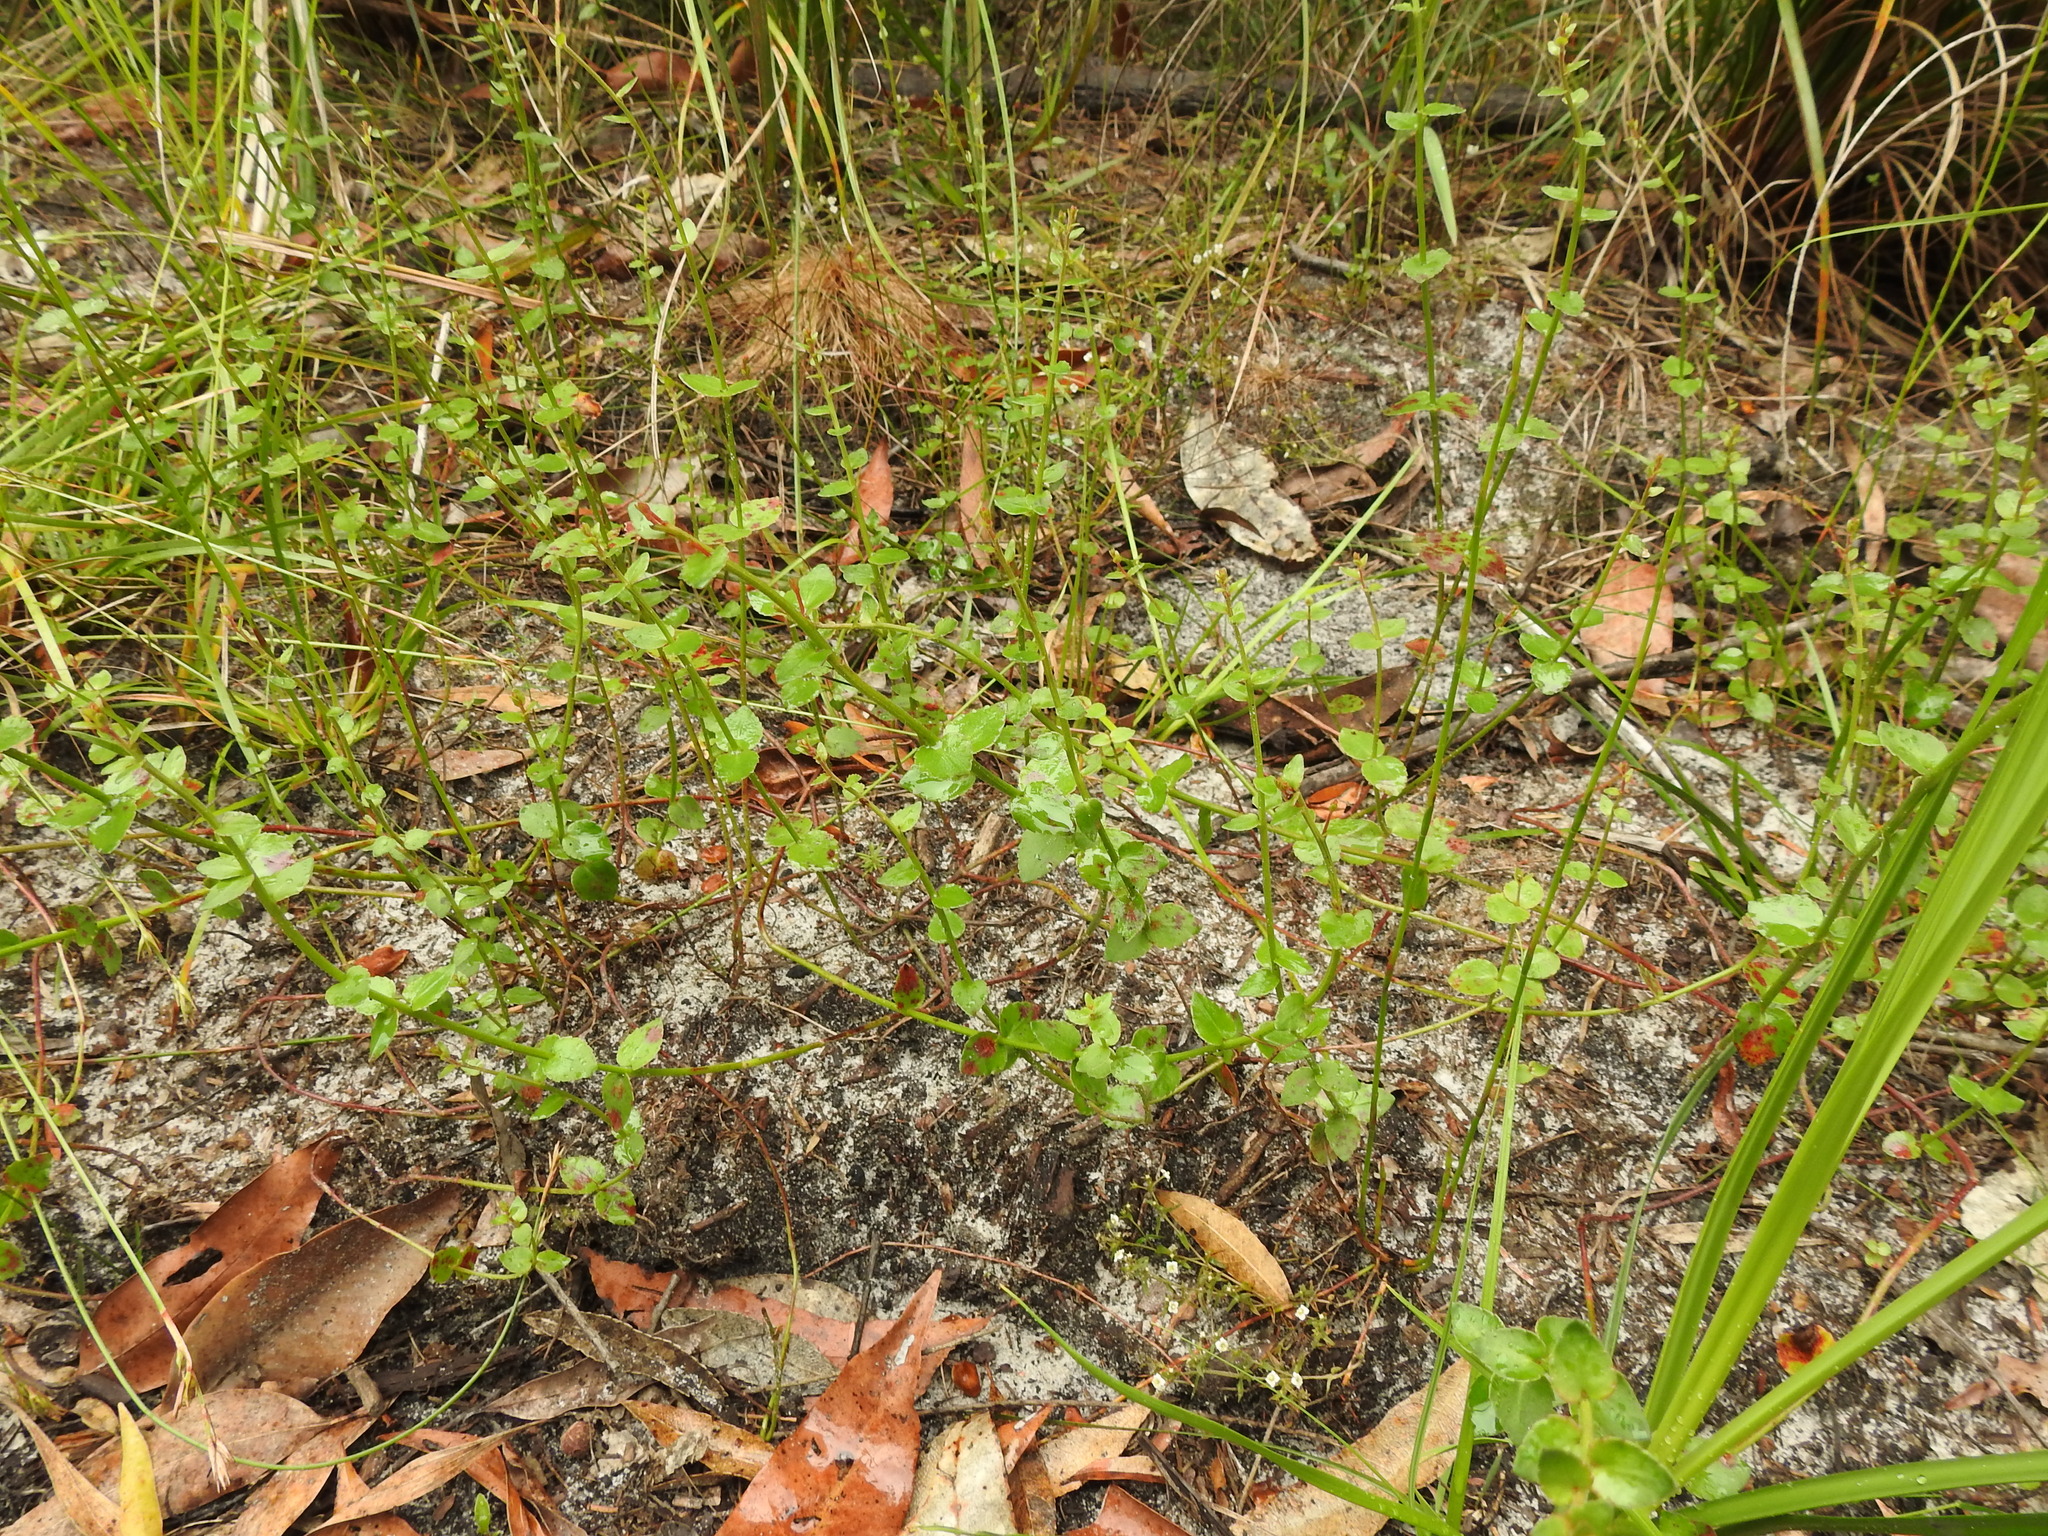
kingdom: Plantae
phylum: Tracheophyta
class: Magnoliopsida
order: Saxifragales
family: Haloragaceae
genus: Gonocarpus
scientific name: Gonocarpus micranthus
